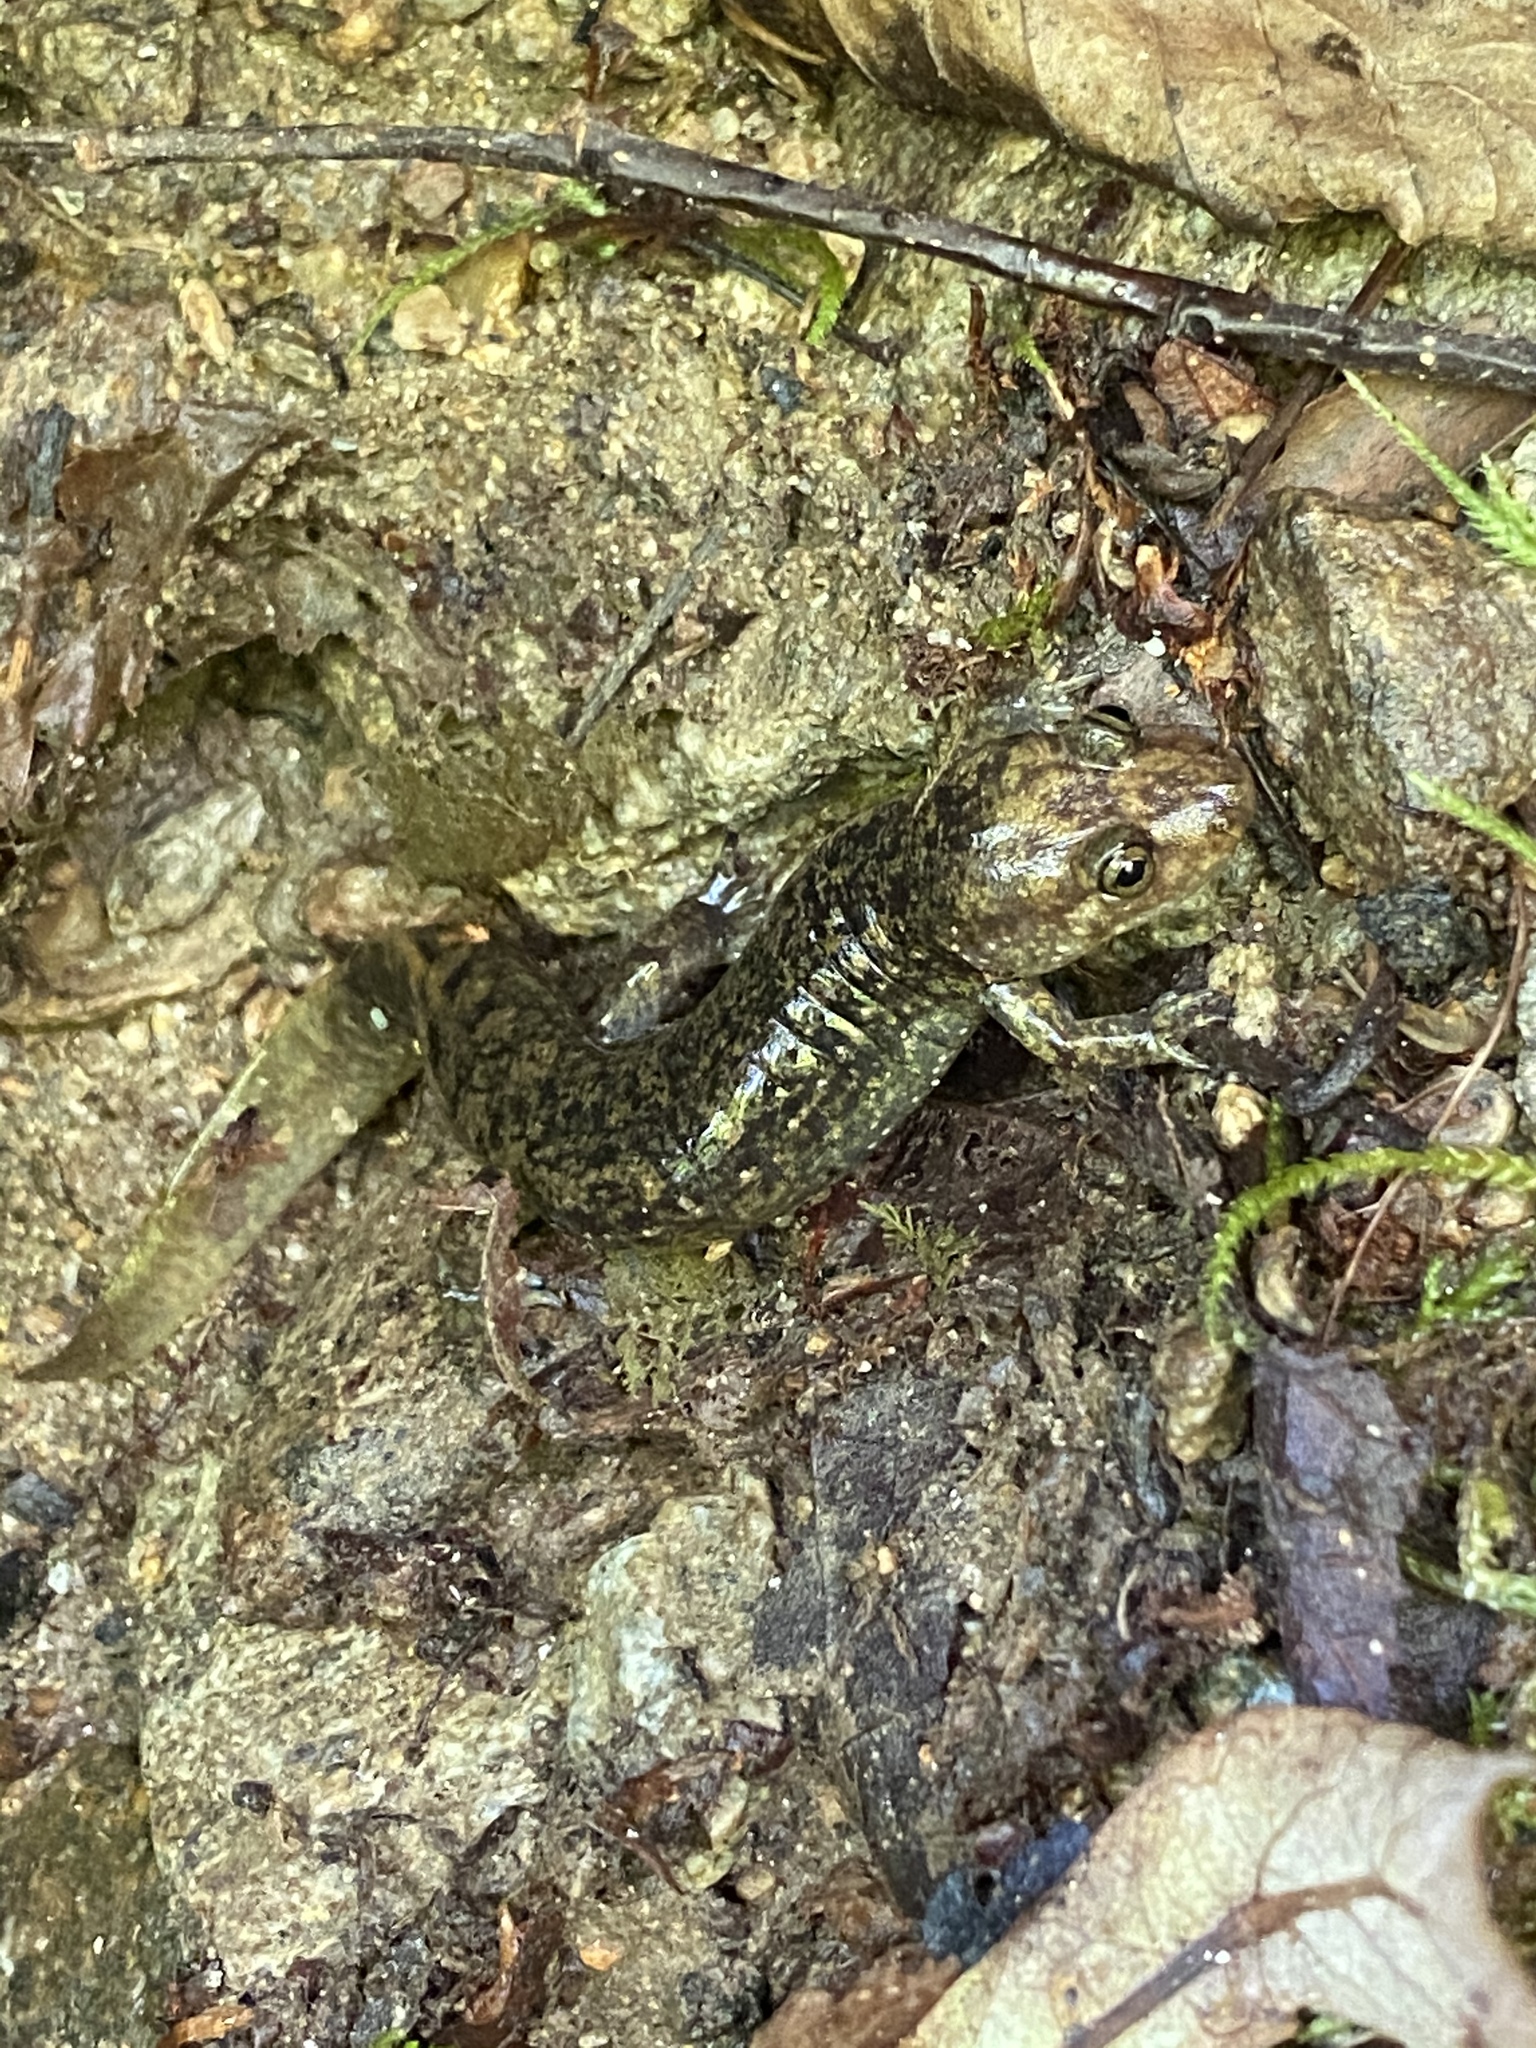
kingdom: Animalia
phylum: Chordata
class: Amphibia
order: Caudata
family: Plethodontidae
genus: Desmognathus
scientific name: Desmognathus
